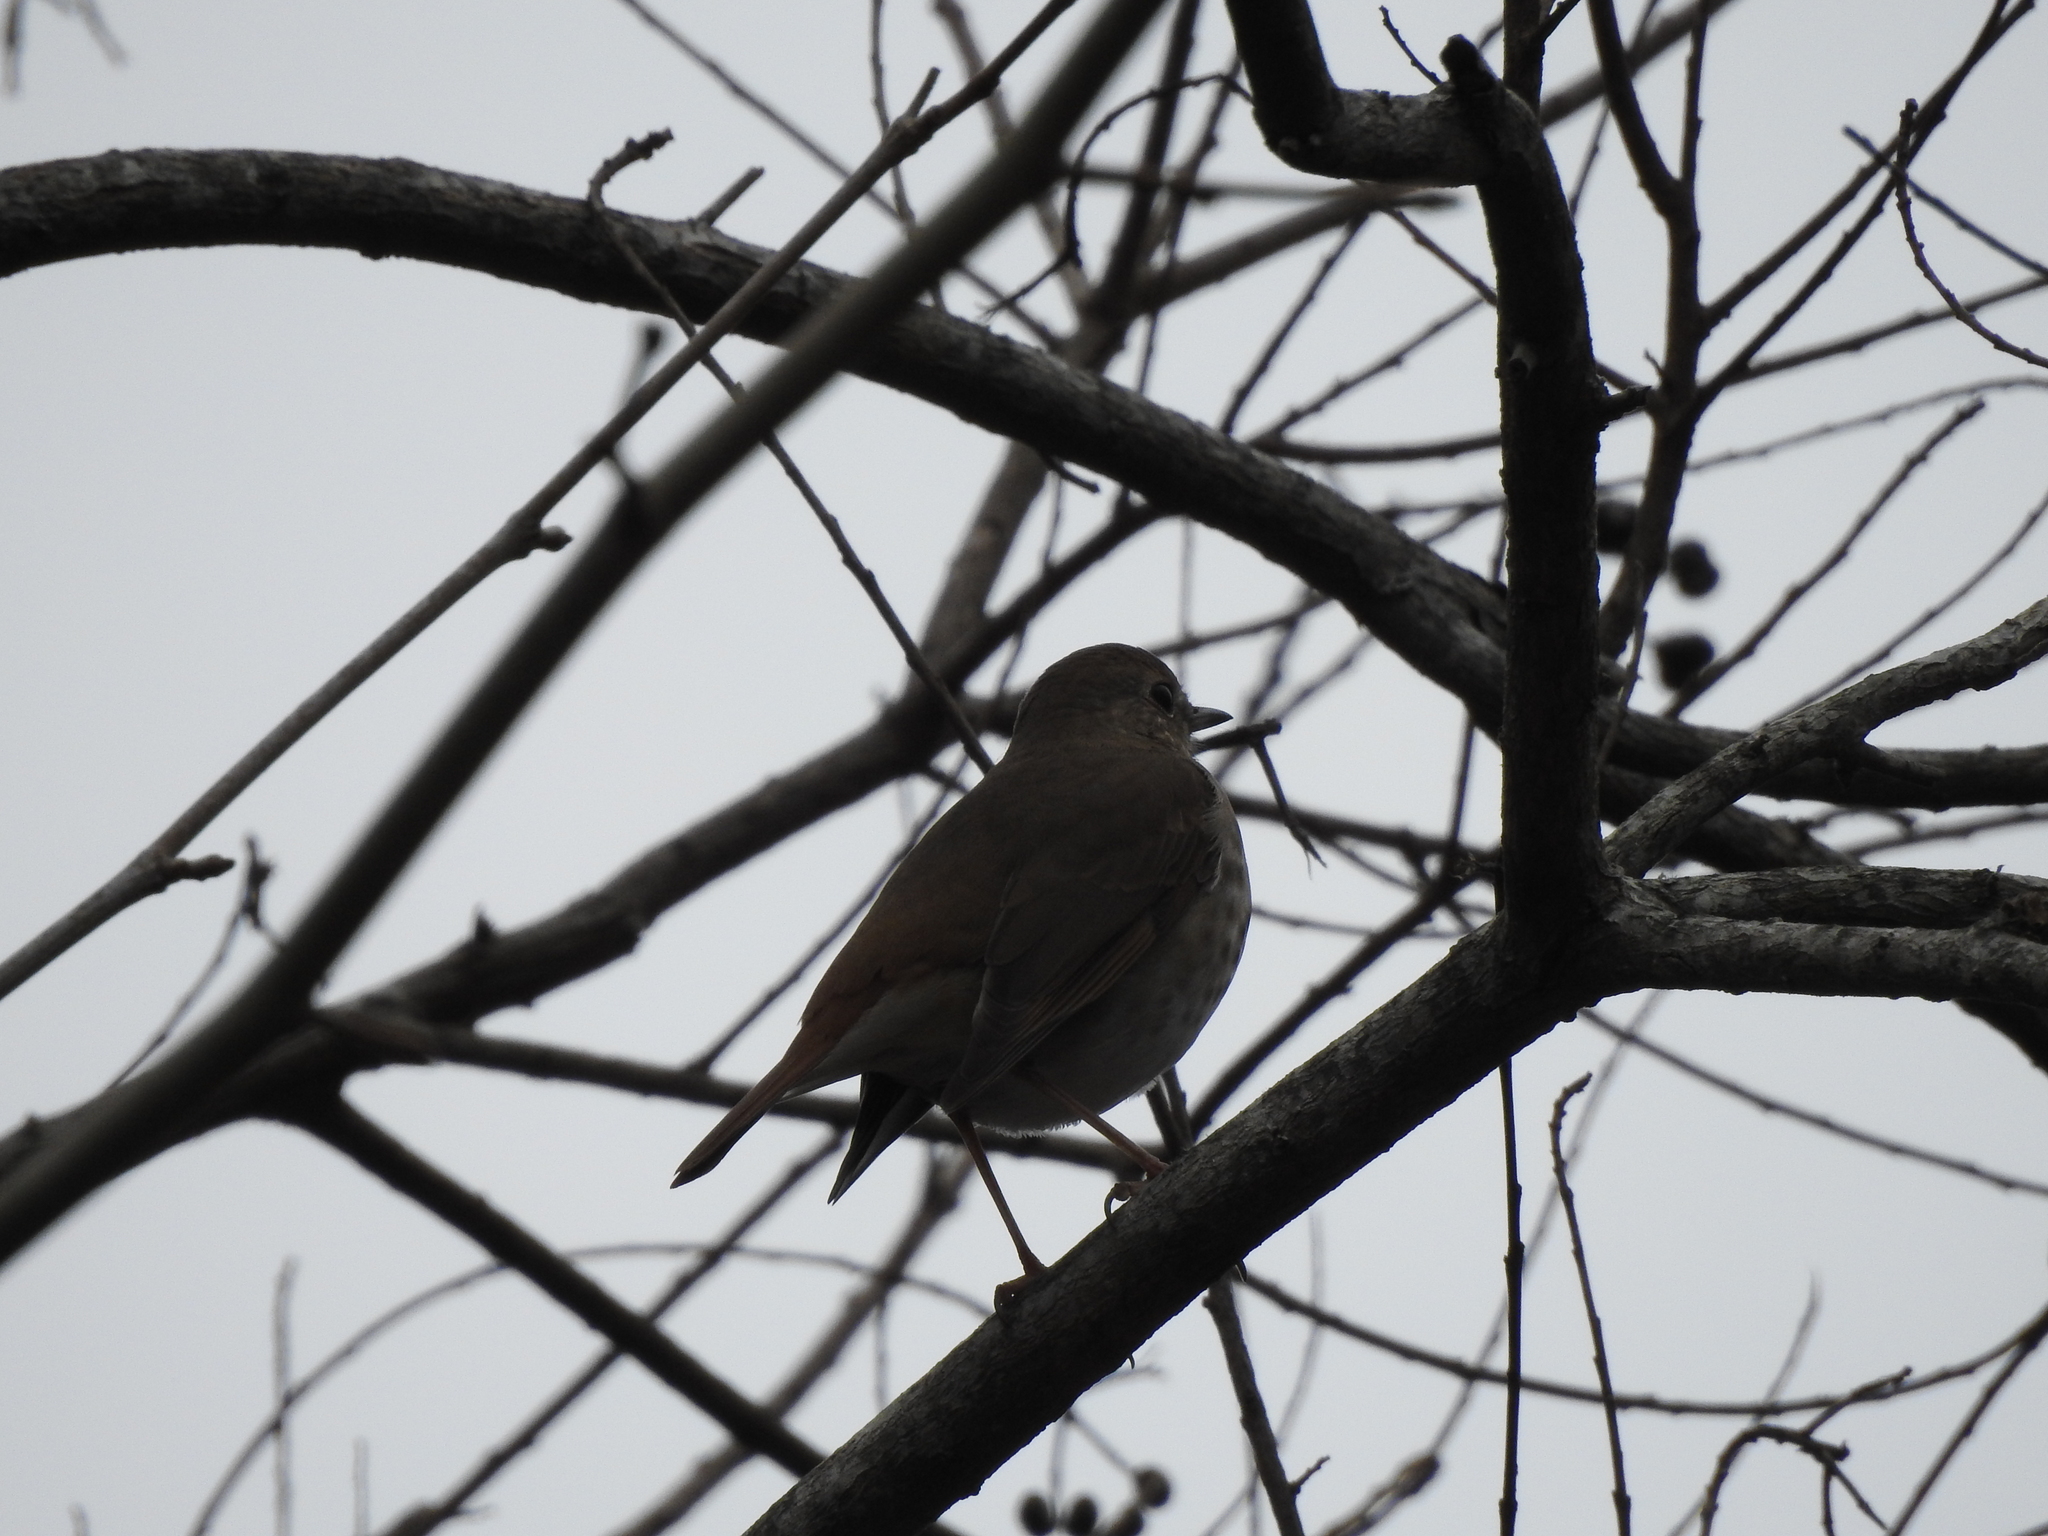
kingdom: Animalia
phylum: Chordata
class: Aves
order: Passeriformes
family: Turdidae
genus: Catharus
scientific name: Catharus guttatus
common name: Hermit thrush
